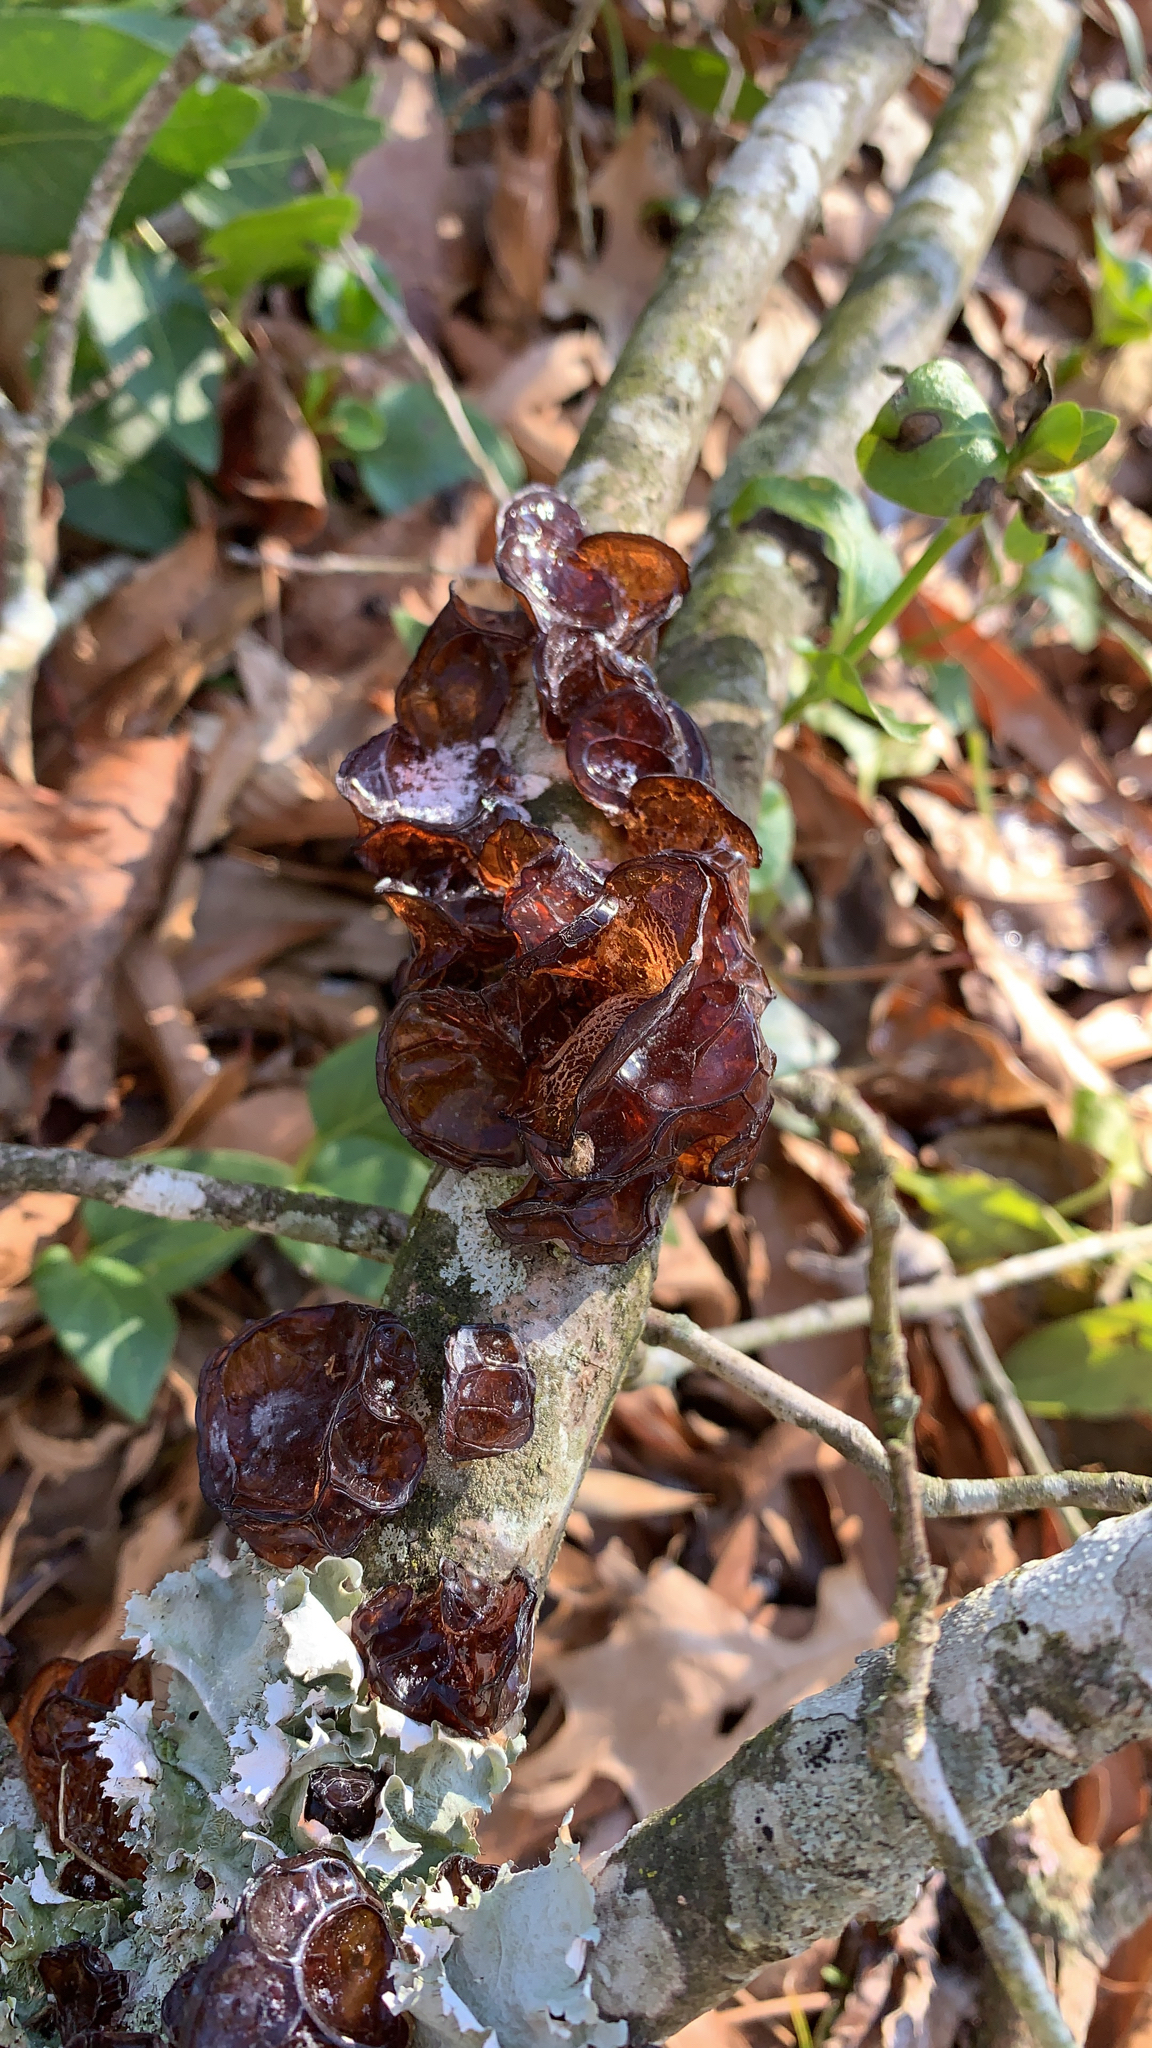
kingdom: Fungi
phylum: Basidiomycota
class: Agaricomycetes
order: Auriculariales
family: Auriculariaceae
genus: Exidia
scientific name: Exidia recisa
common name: Amber jelly
